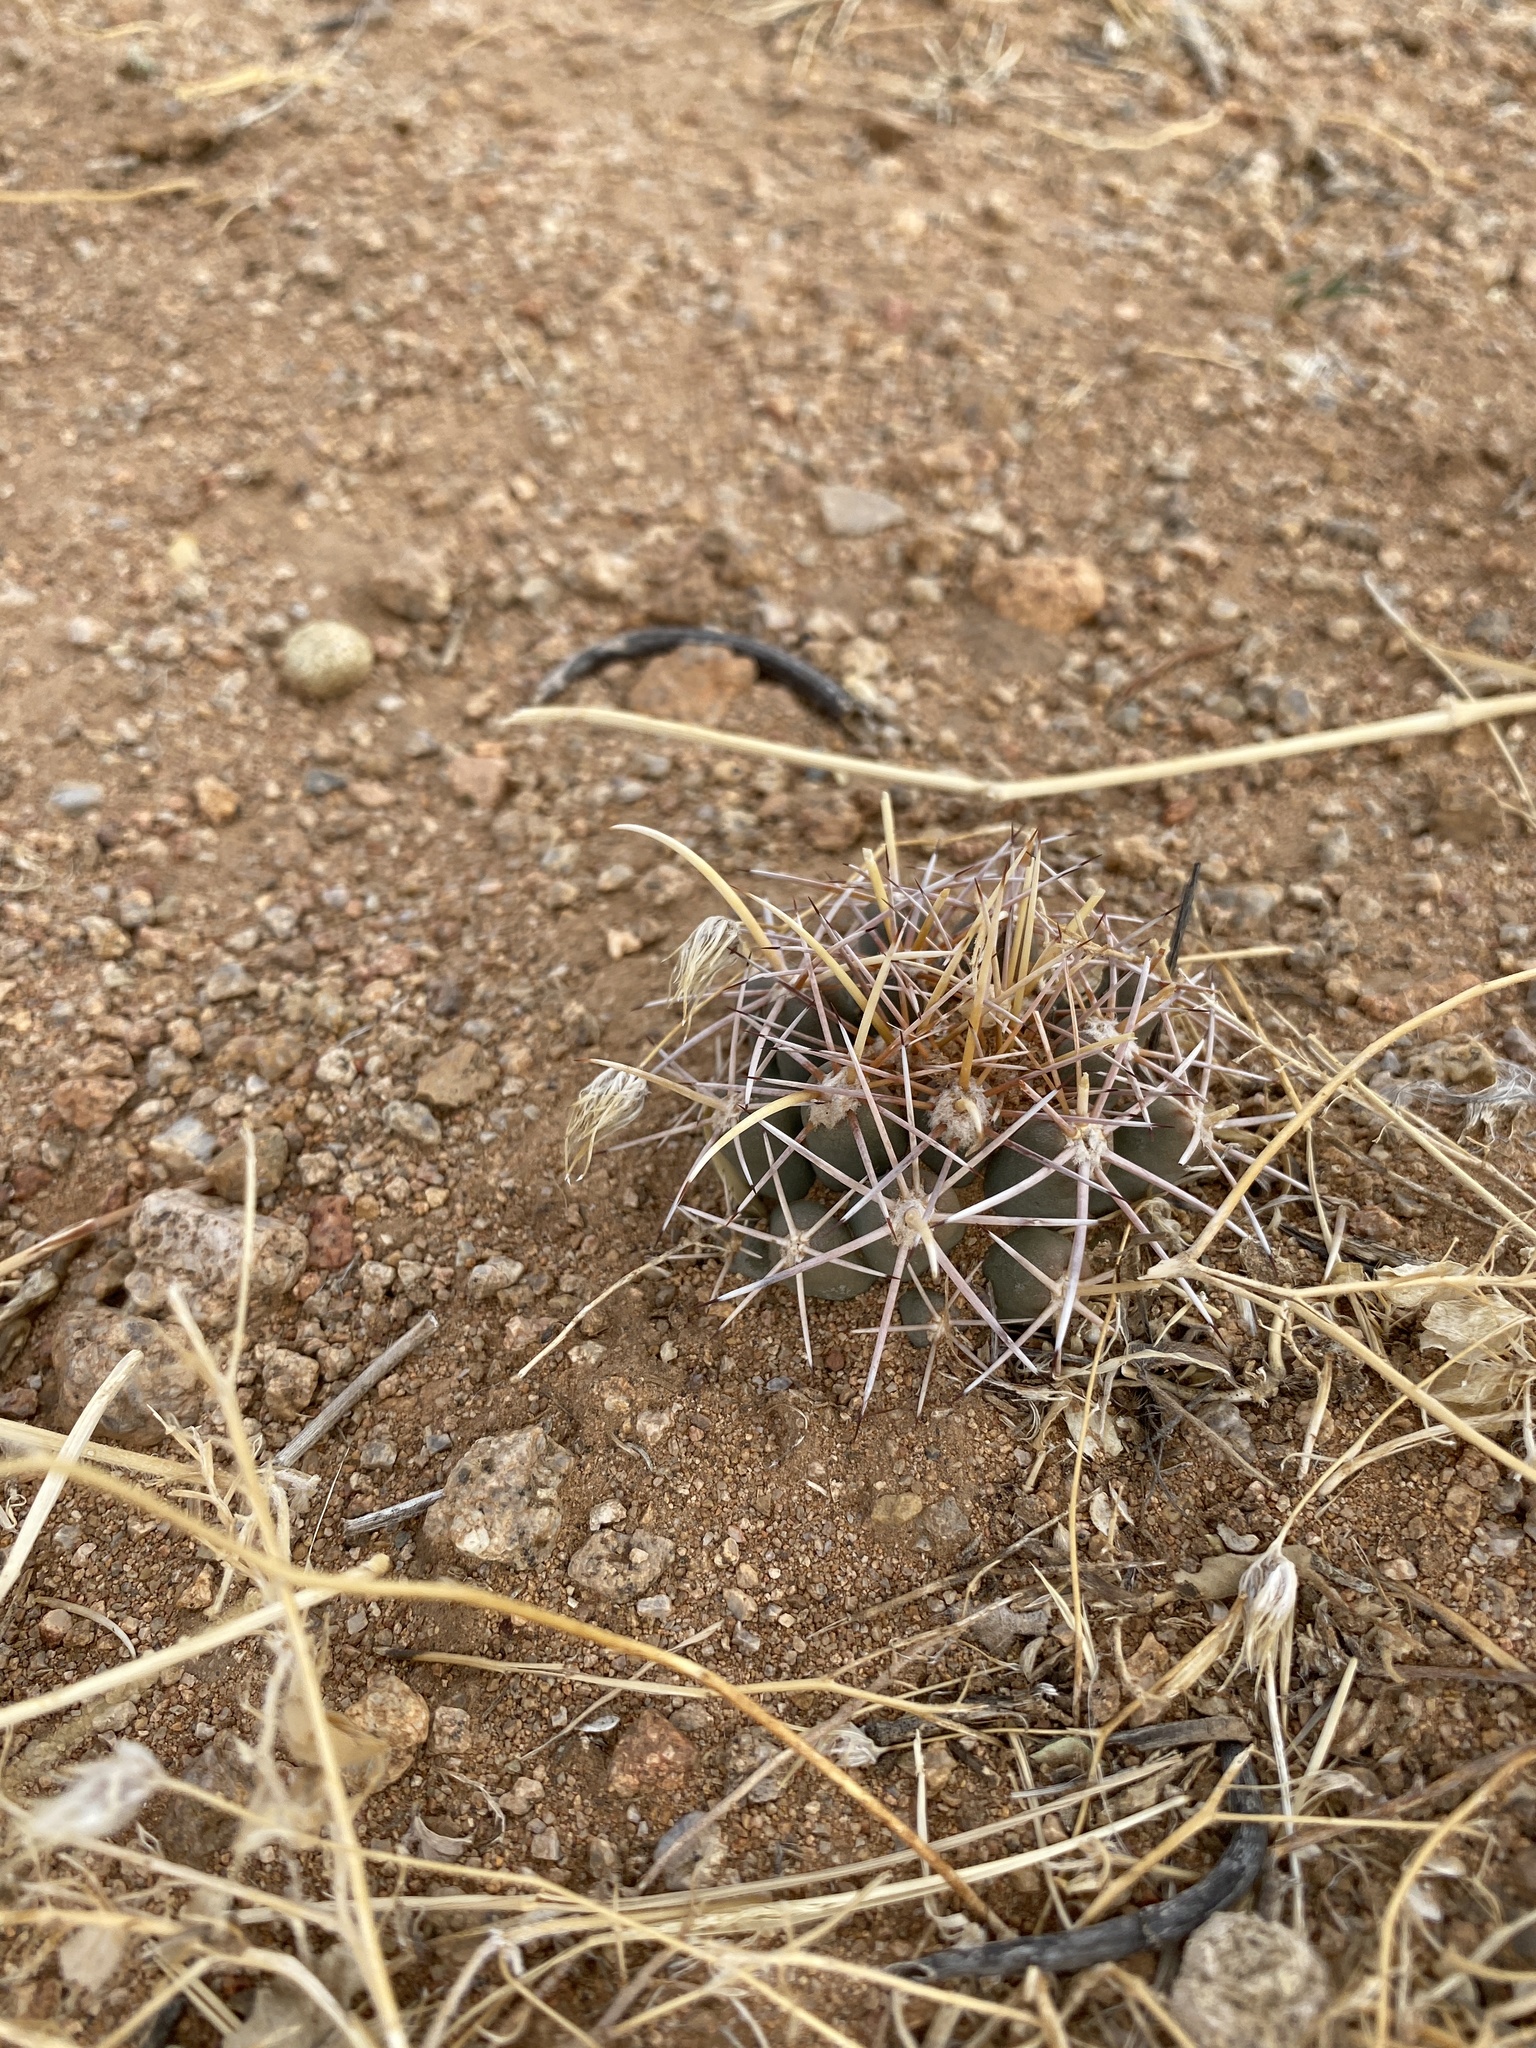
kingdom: Plantae
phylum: Tracheophyta
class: Magnoliopsida
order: Caryophyllales
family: Cactaceae
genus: Coryphantha
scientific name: Coryphantha robustispina
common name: Pima pineapple cactus
